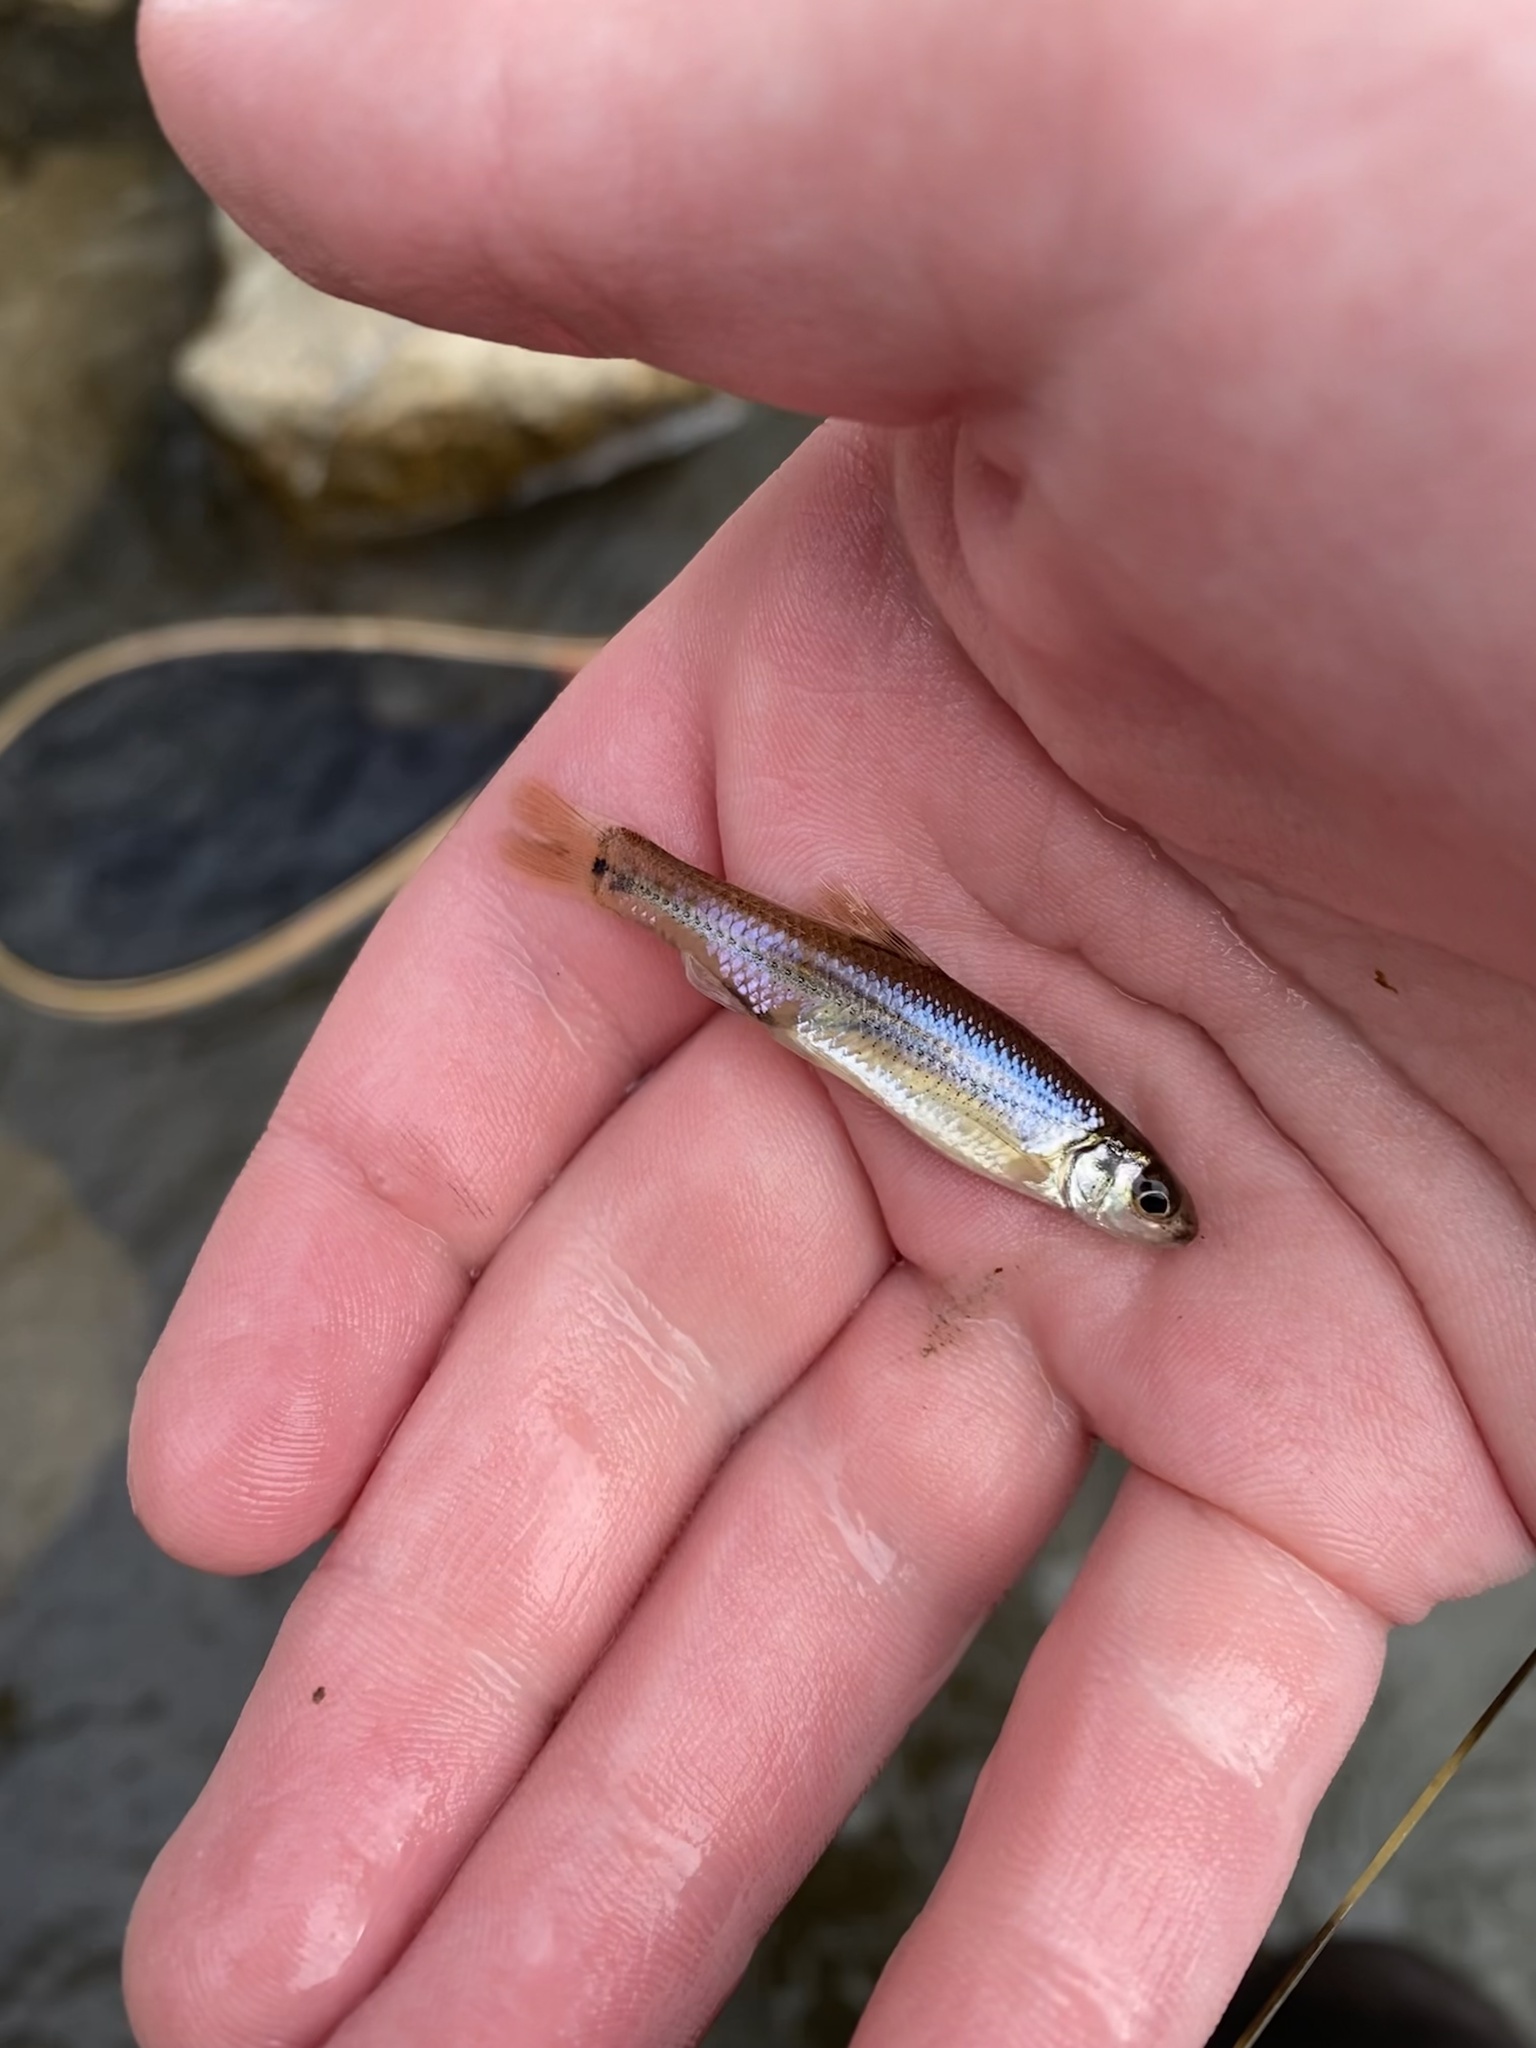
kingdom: Animalia
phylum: Chordata
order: Cypriniformes
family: Cyprinidae
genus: Pimephales
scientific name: Pimephales vigilax
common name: Bullhead minnow
